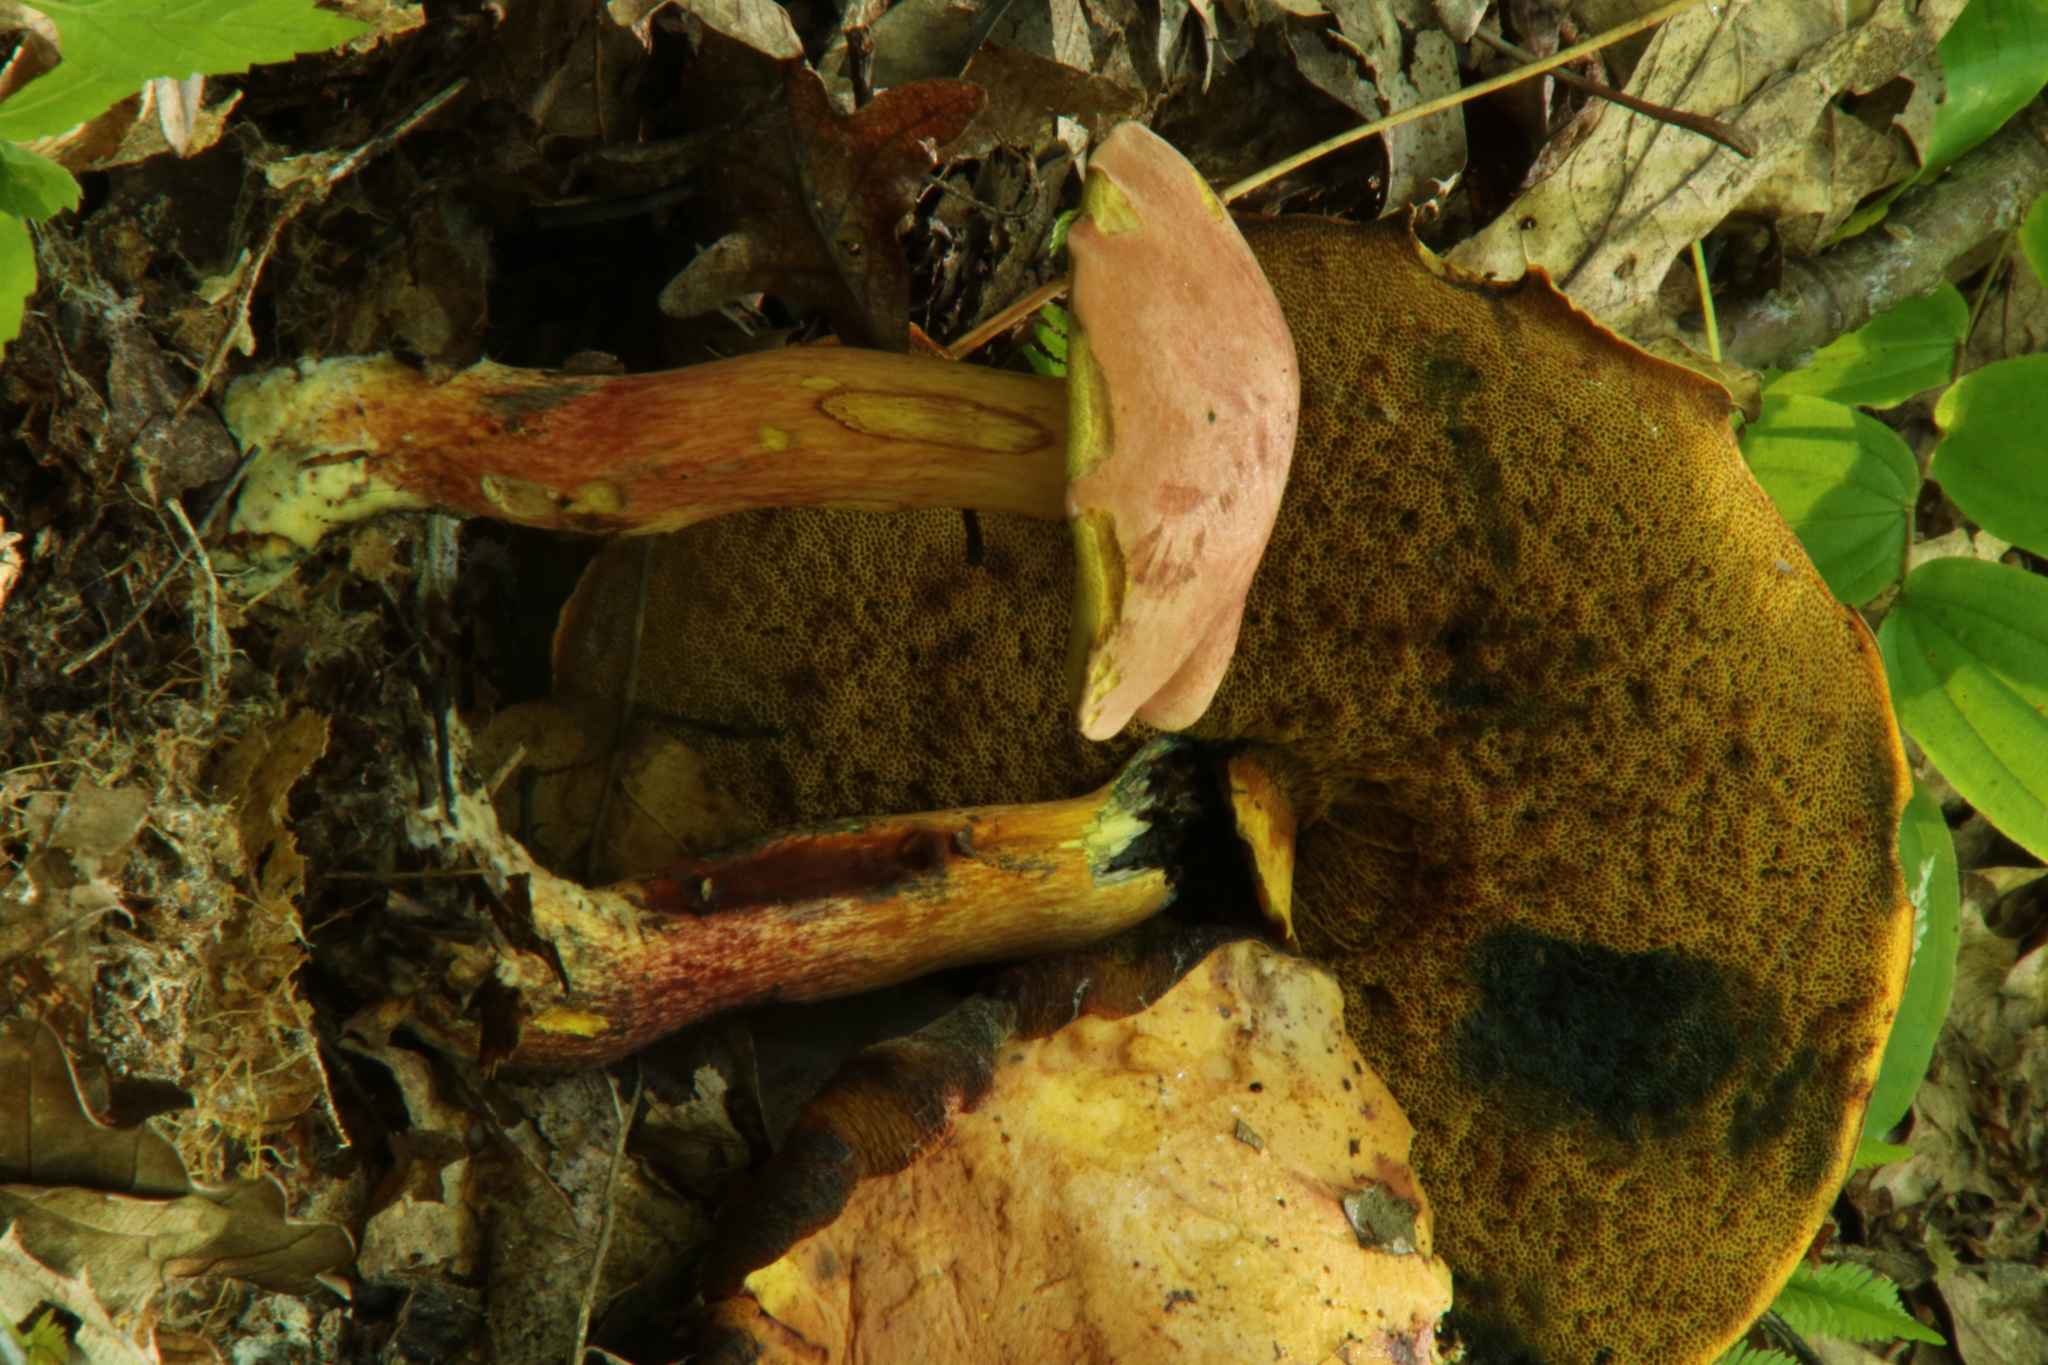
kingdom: Fungi
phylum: Basidiomycota
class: Agaricomycetes
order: Boletales
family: Boletaceae
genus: Boletus
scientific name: Boletus sensibilis
